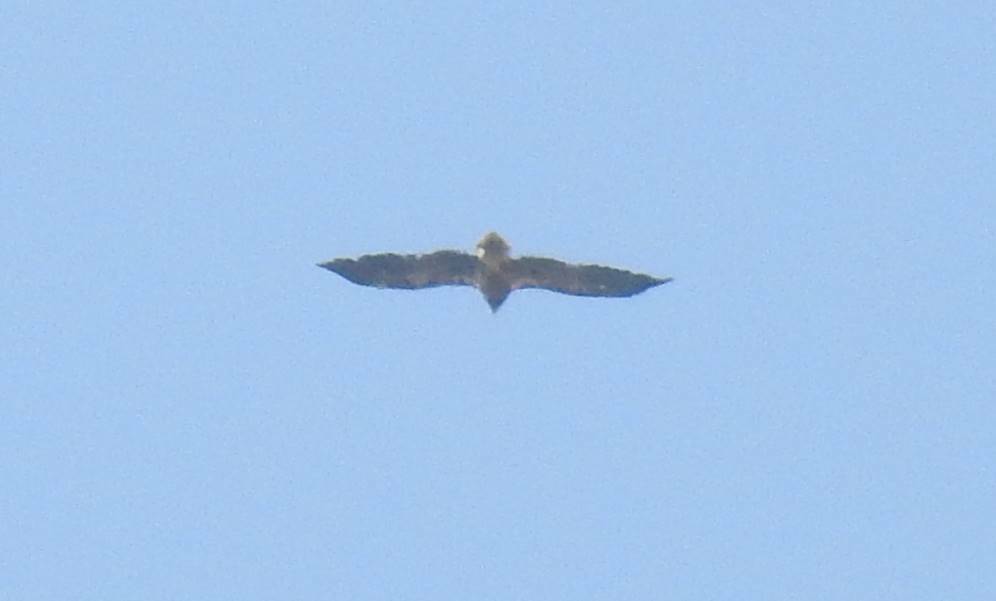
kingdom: Animalia
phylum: Chordata
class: Aves
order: Accipitriformes
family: Accipitridae
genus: Neophron
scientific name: Neophron percnopterus
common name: Egyptian vulture
